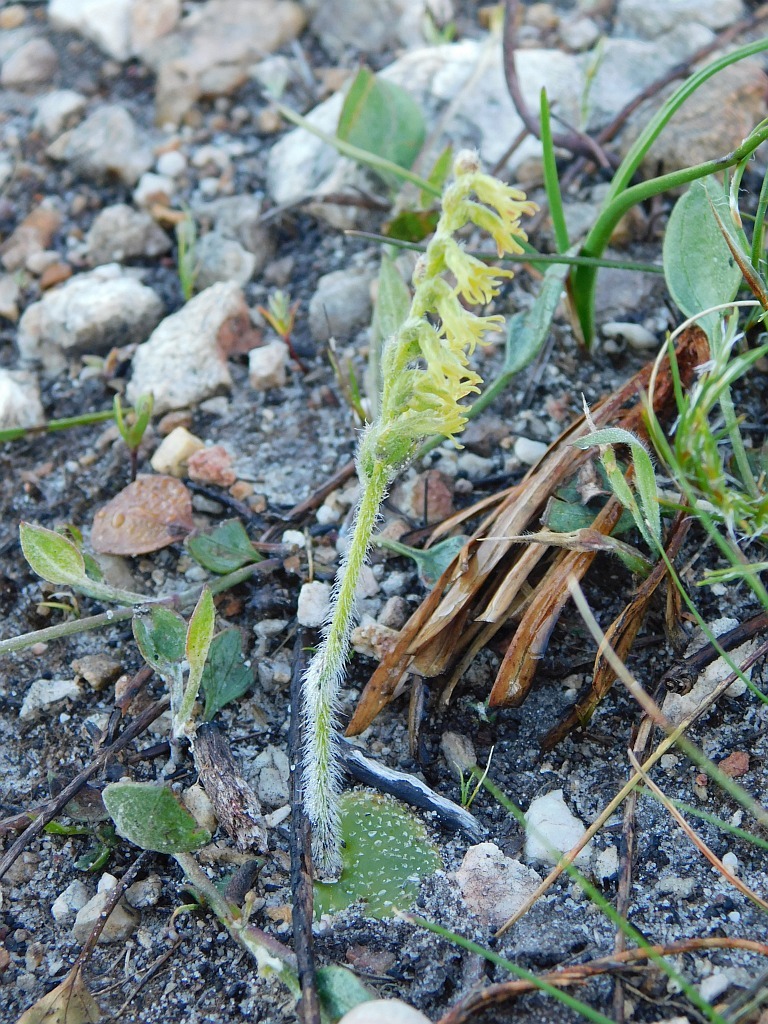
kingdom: Plantae
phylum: Tracheophyta
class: Liliopsida
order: Asparagales
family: Orchidaceae
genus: Holothrix
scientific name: Holothrix cernua
